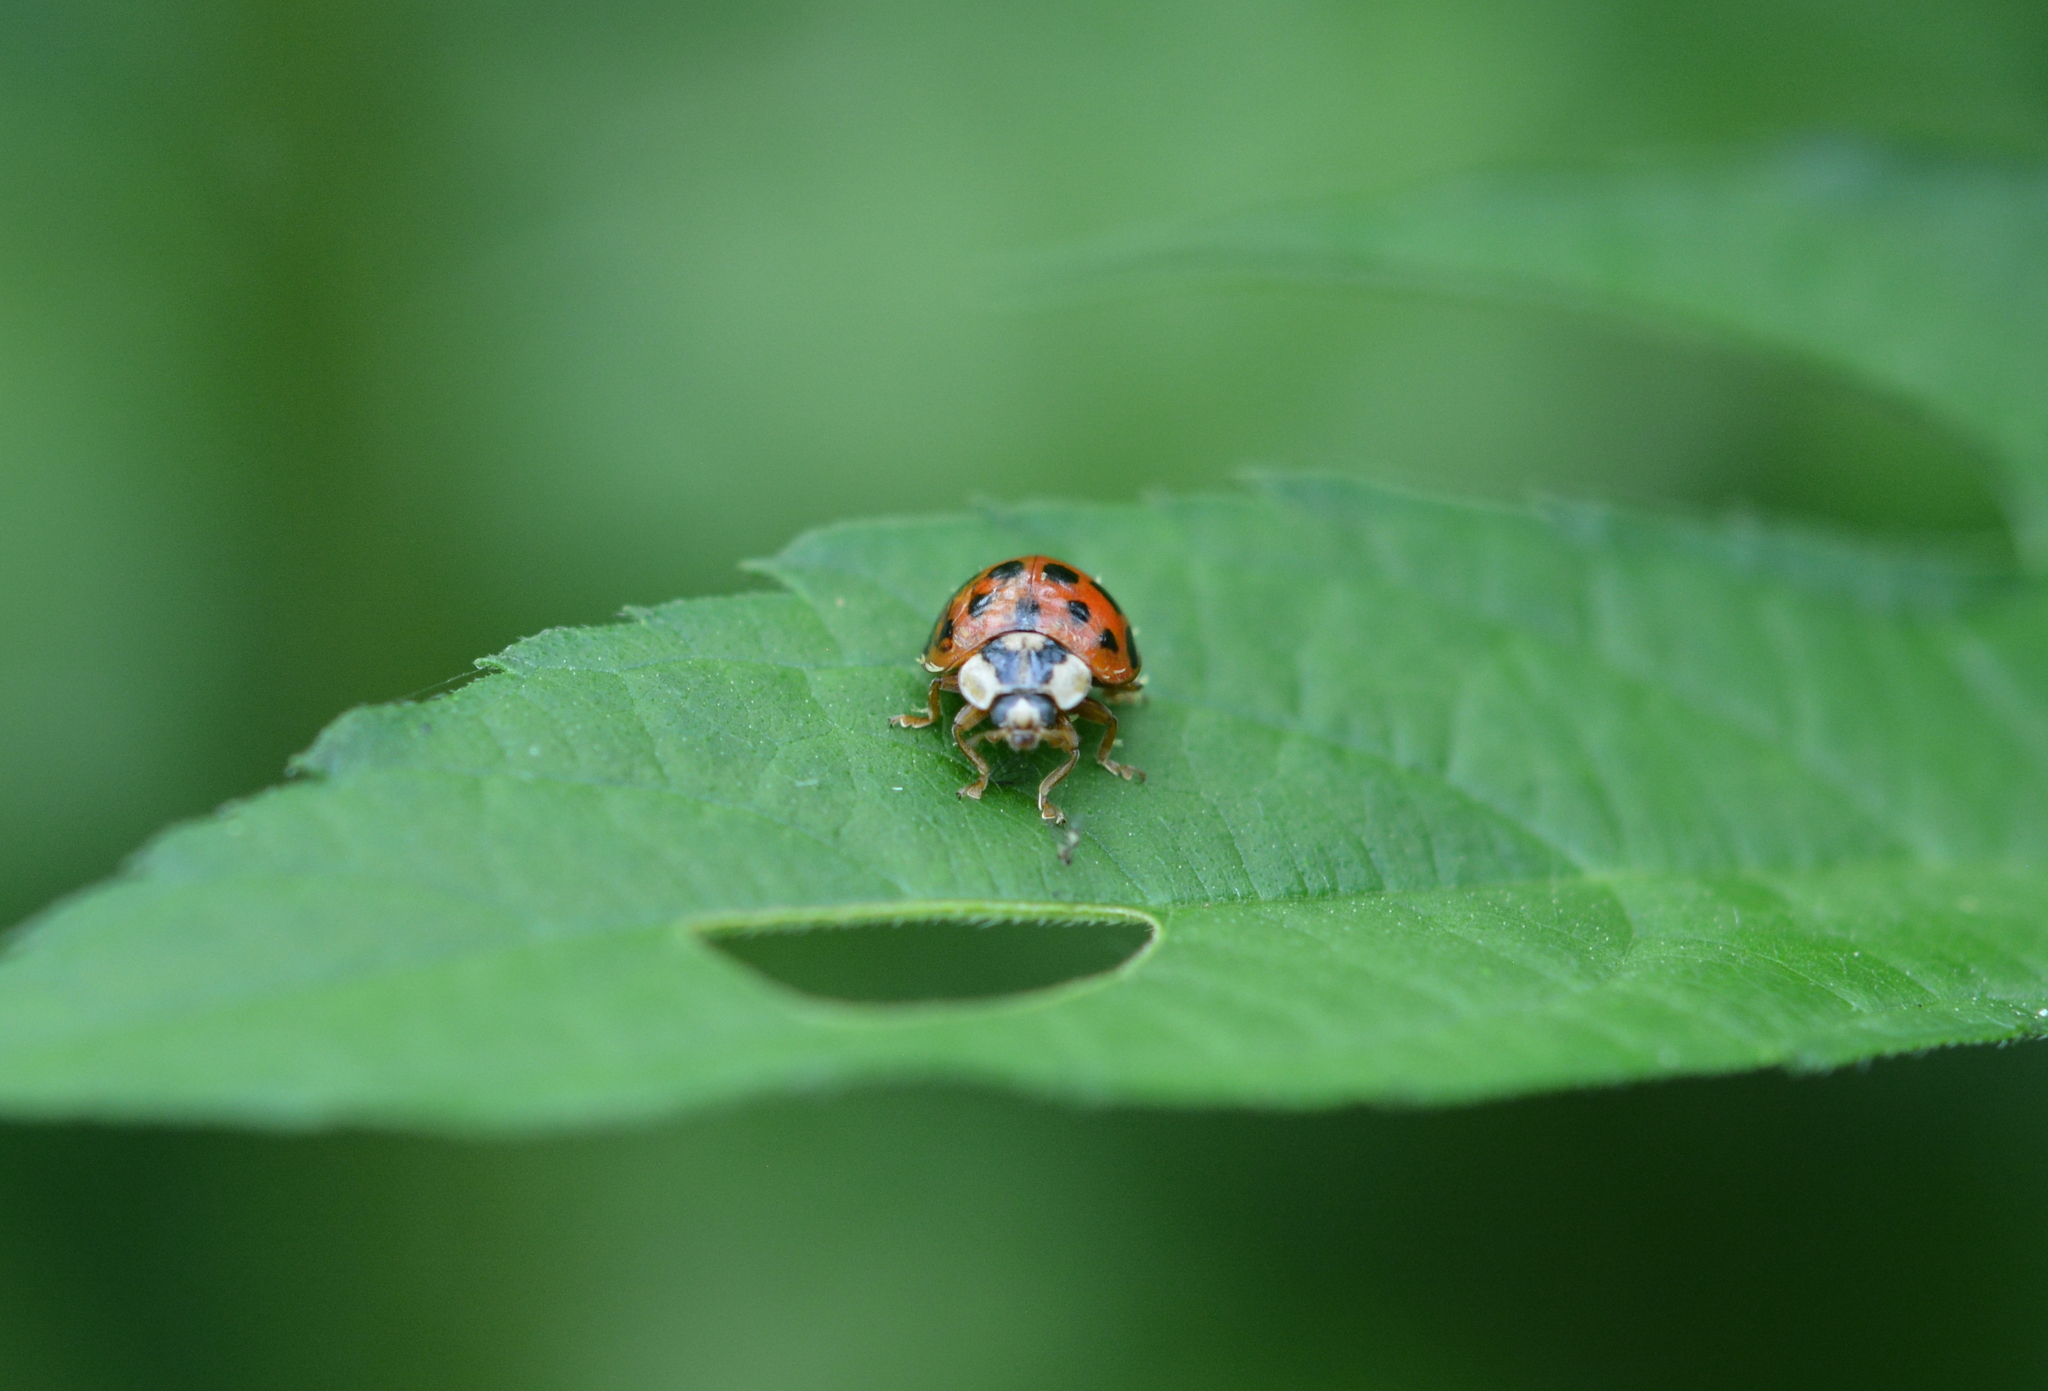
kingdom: Animalia
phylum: Arthropoda
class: Insecta
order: Coleoptera
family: Coccinellidae
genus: Harmonia
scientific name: Harmonia axyridis
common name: Harlequin ladybird
